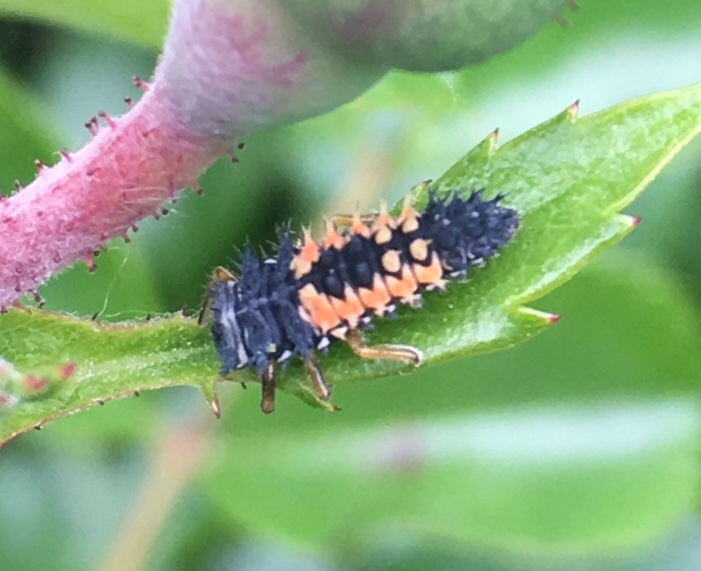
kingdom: Animalia
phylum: Arthropoda
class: Insecta
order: Coleoptera
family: Coccinellidae
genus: Harmonia
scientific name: Harmonia axyridis
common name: Harlequin ladybird
